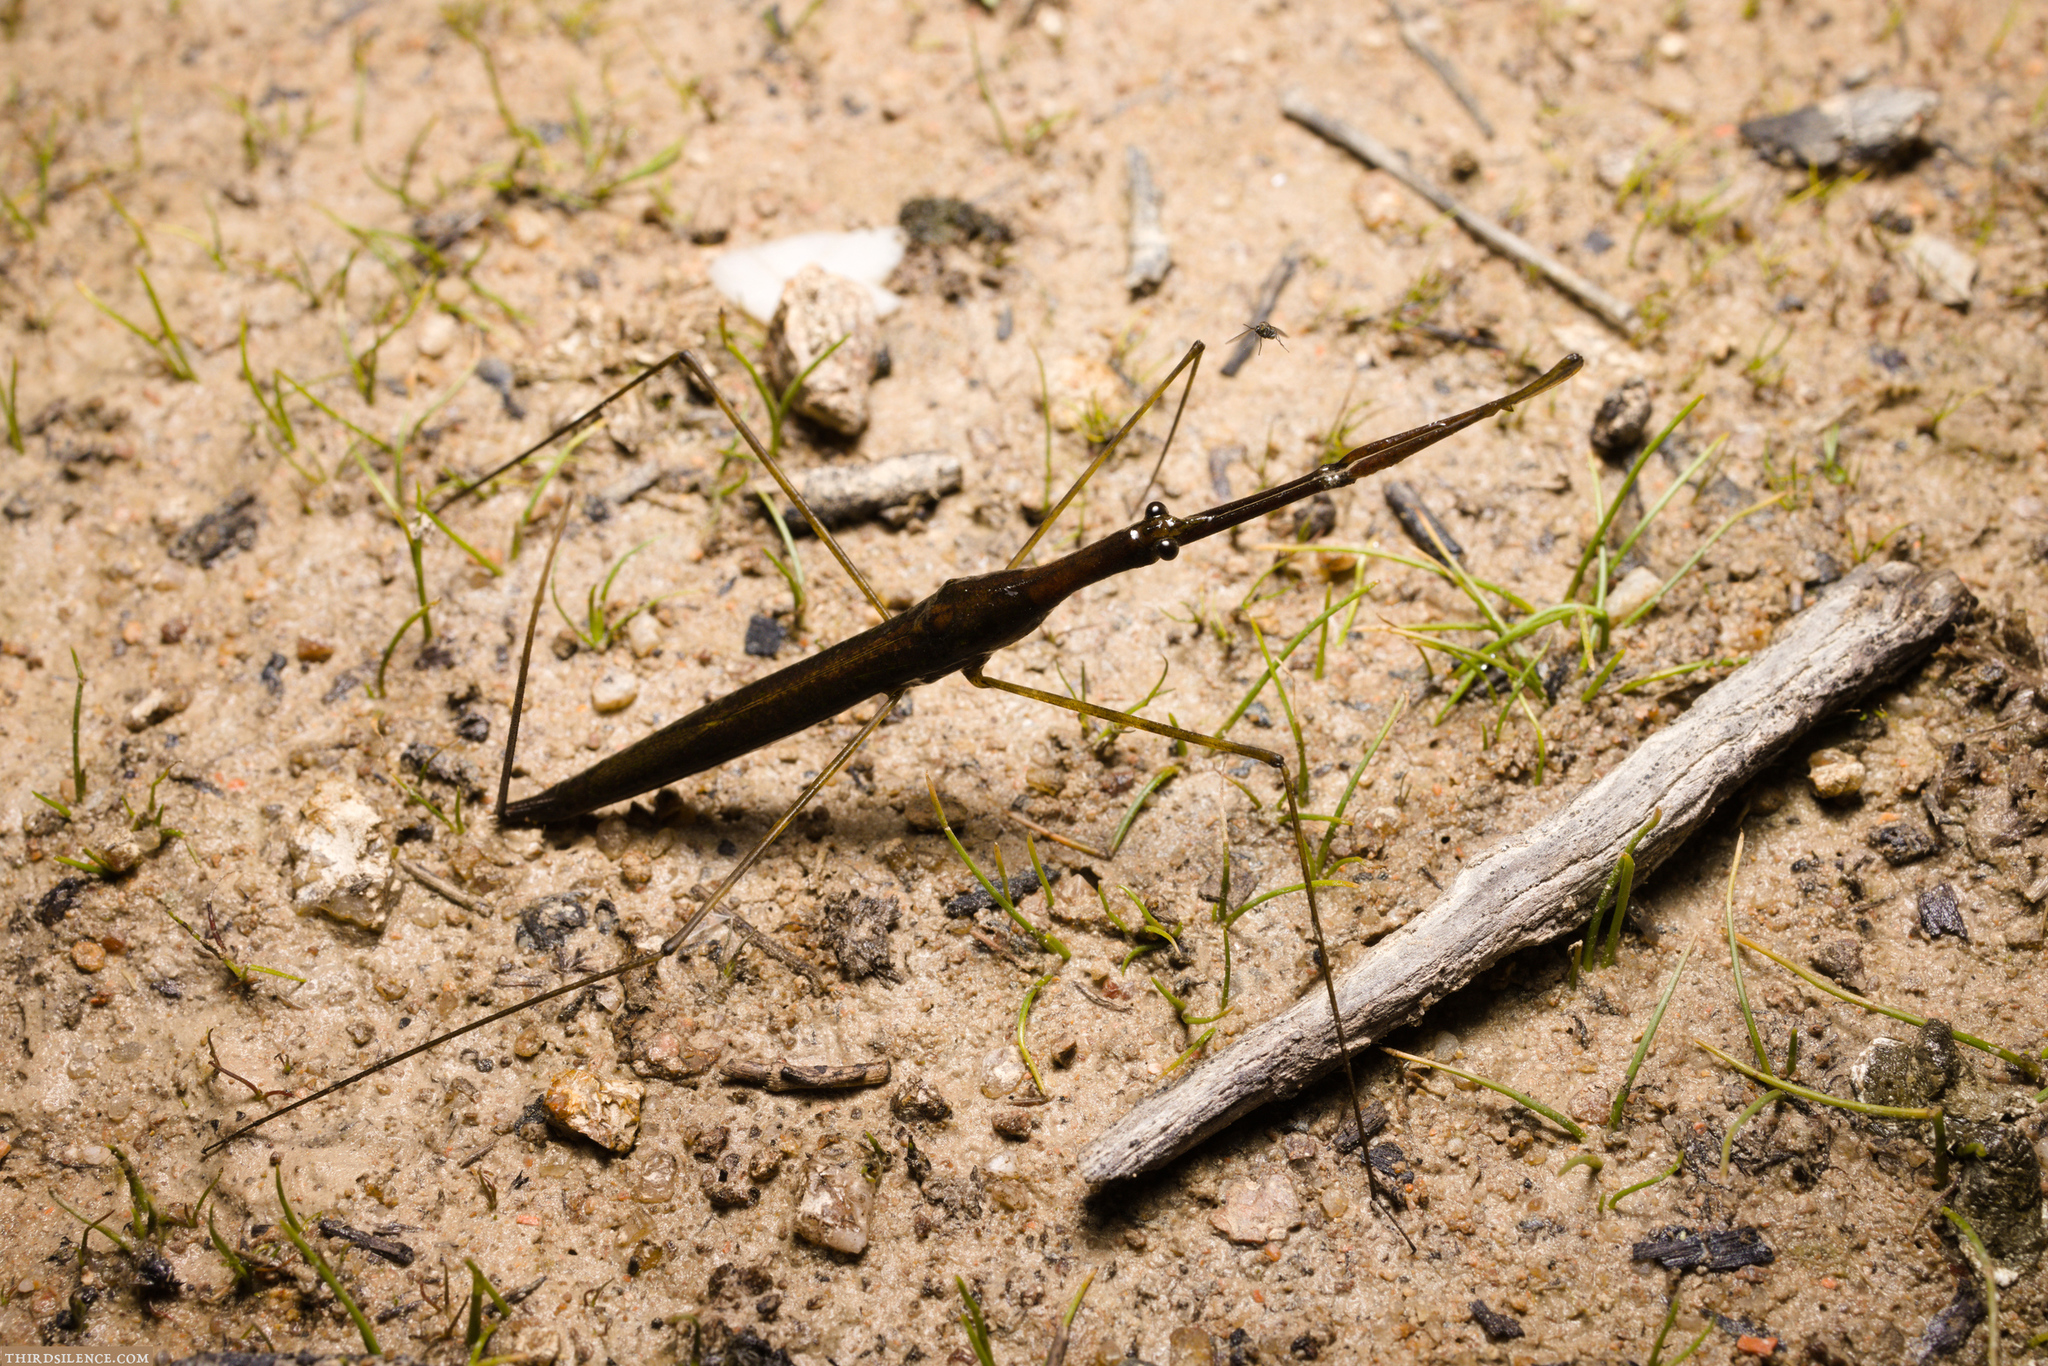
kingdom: Animalia
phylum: Arthropoda
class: Insecta
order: Hemiptera
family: Nepidae
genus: Ranatra
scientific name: Ranatra dispar
